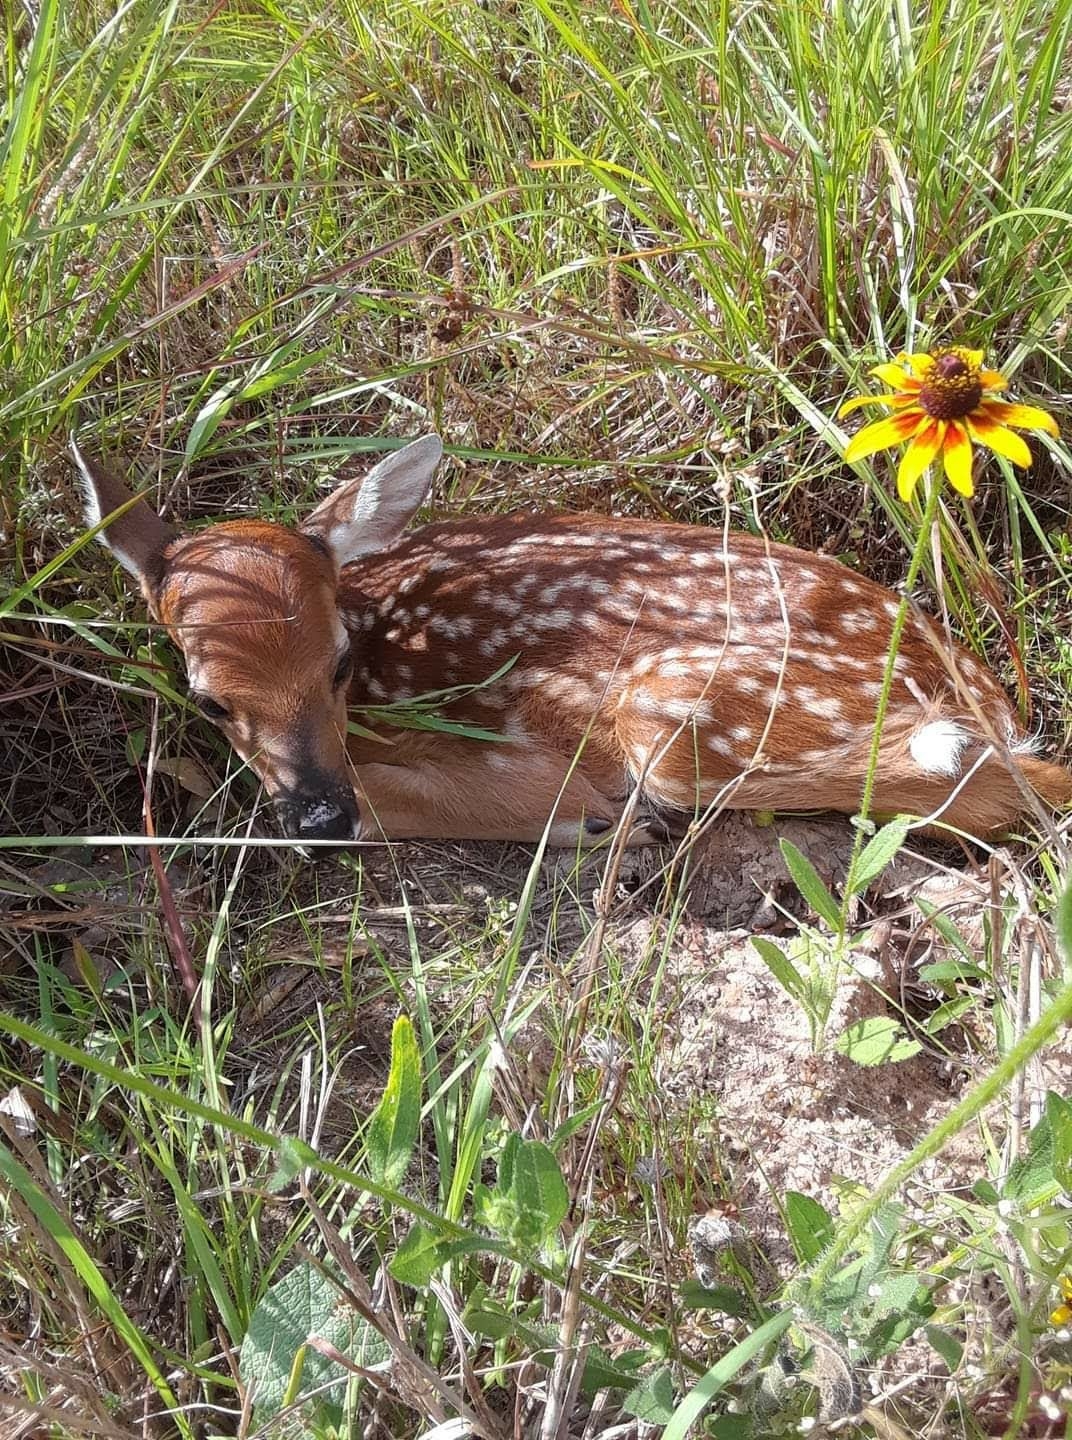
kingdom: Animalia
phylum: Chordata
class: Mammalia
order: Artiodactyla
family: Cervidae
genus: Odocoileus
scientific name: Odocoileus virginianus
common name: White-tailed deer
